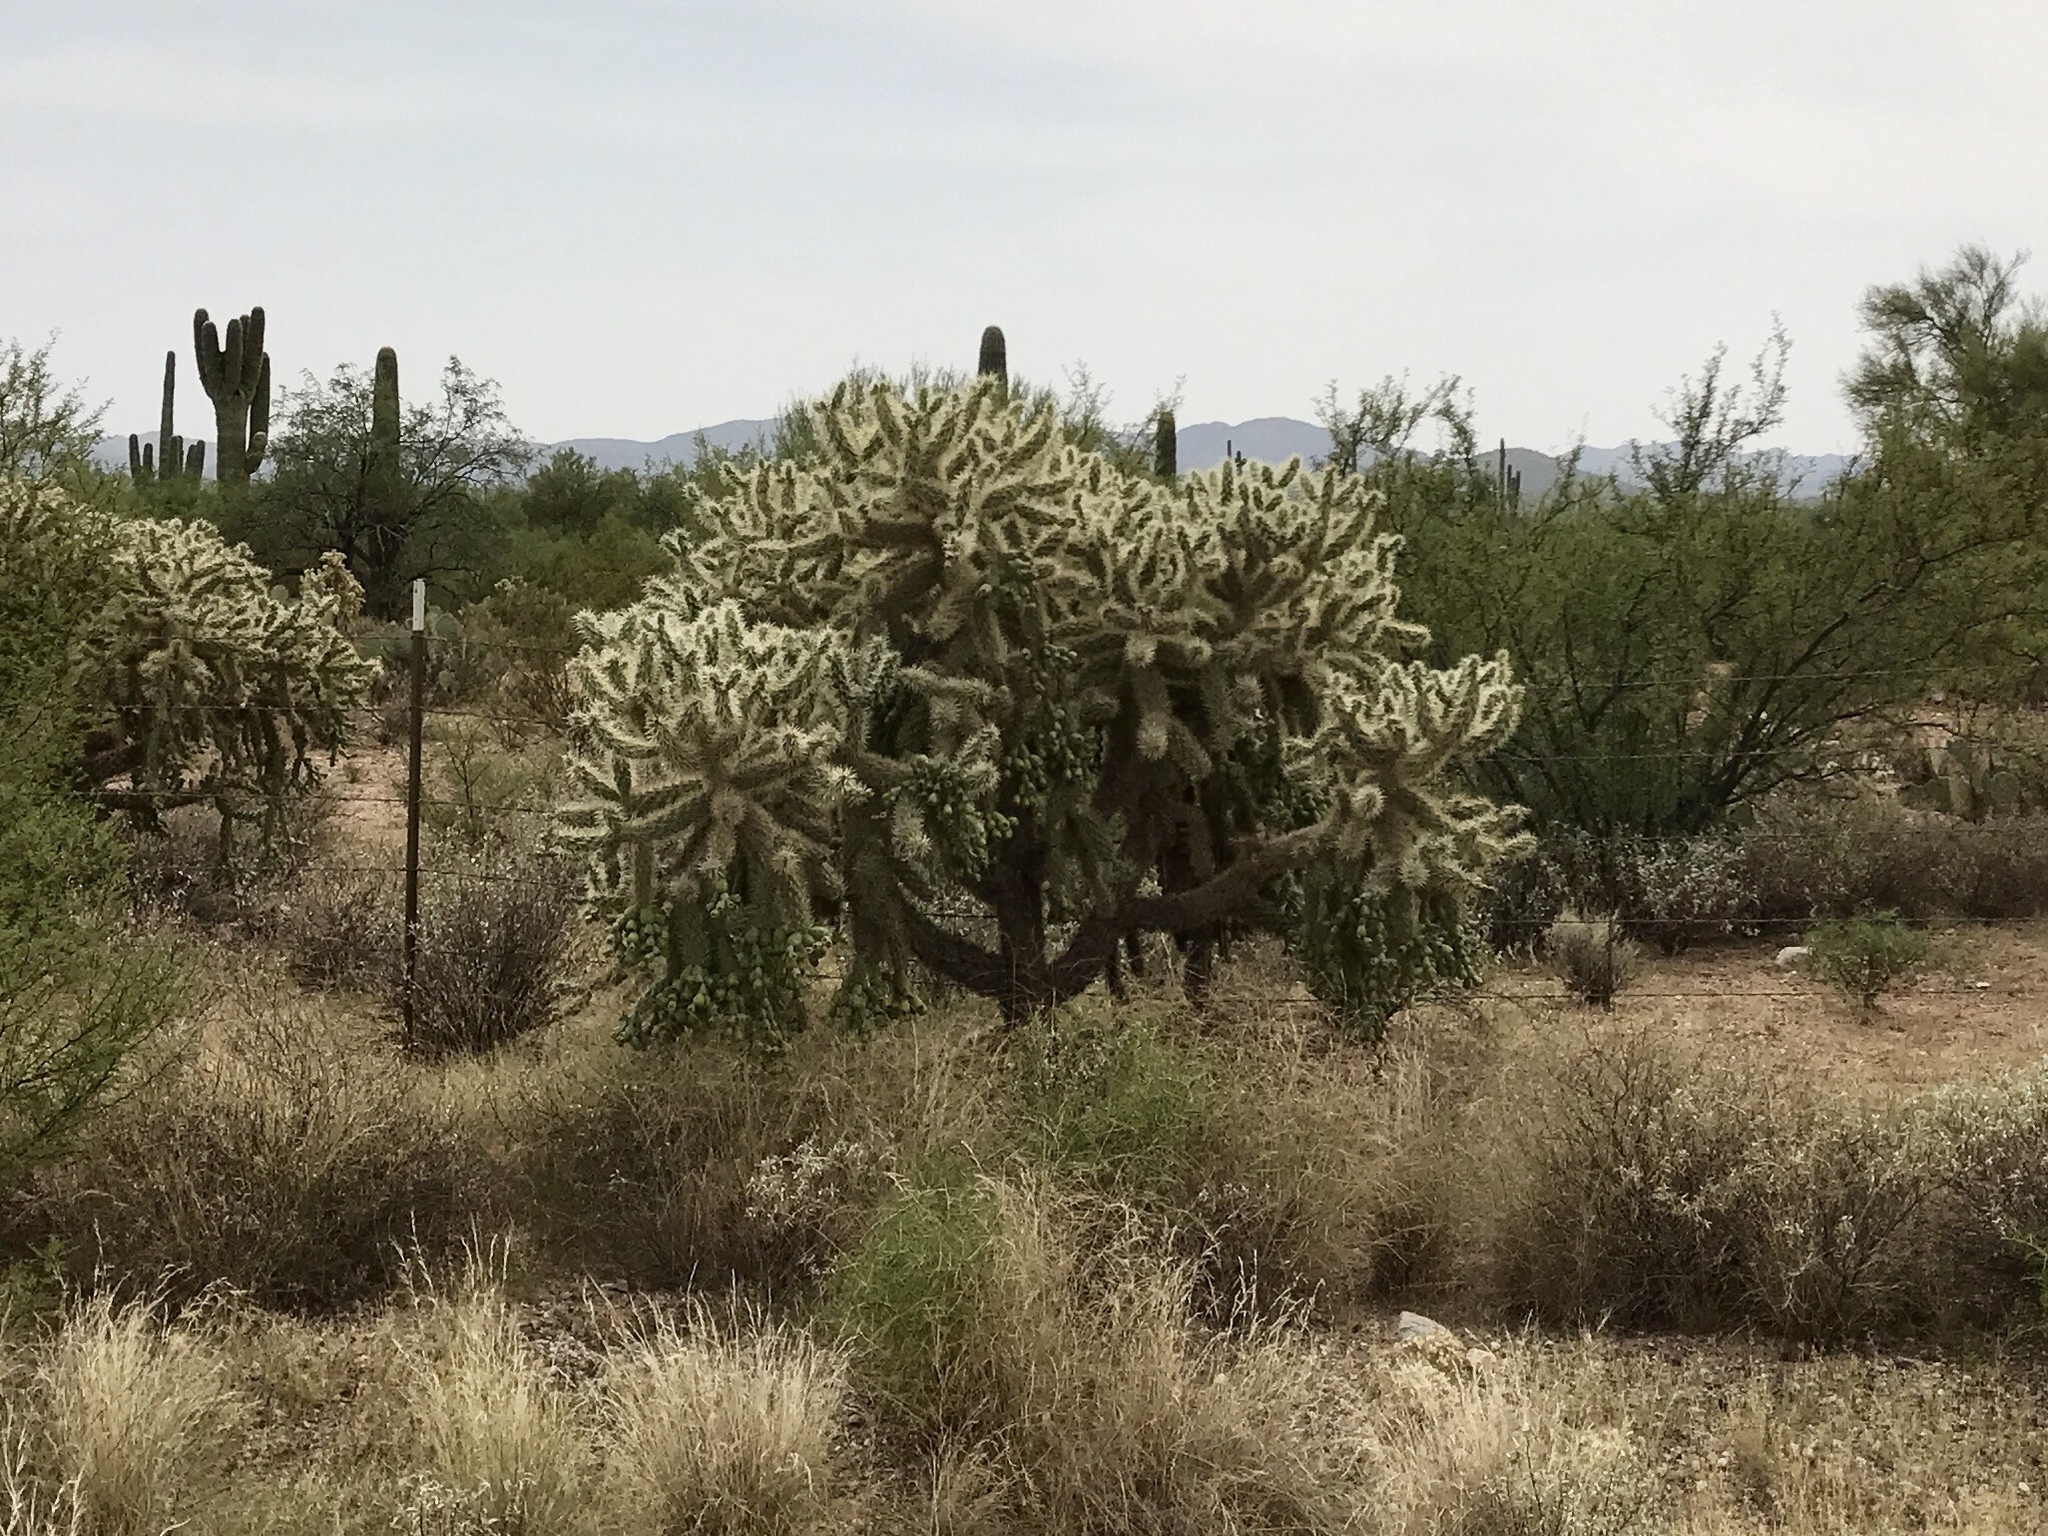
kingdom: Plantae
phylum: Tracheophyta
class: Magnoliopsida
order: Caryophyllales
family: Cactaceae
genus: Cylindropuntia
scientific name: Cylindropuntia fulgida
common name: Jumping cholla
